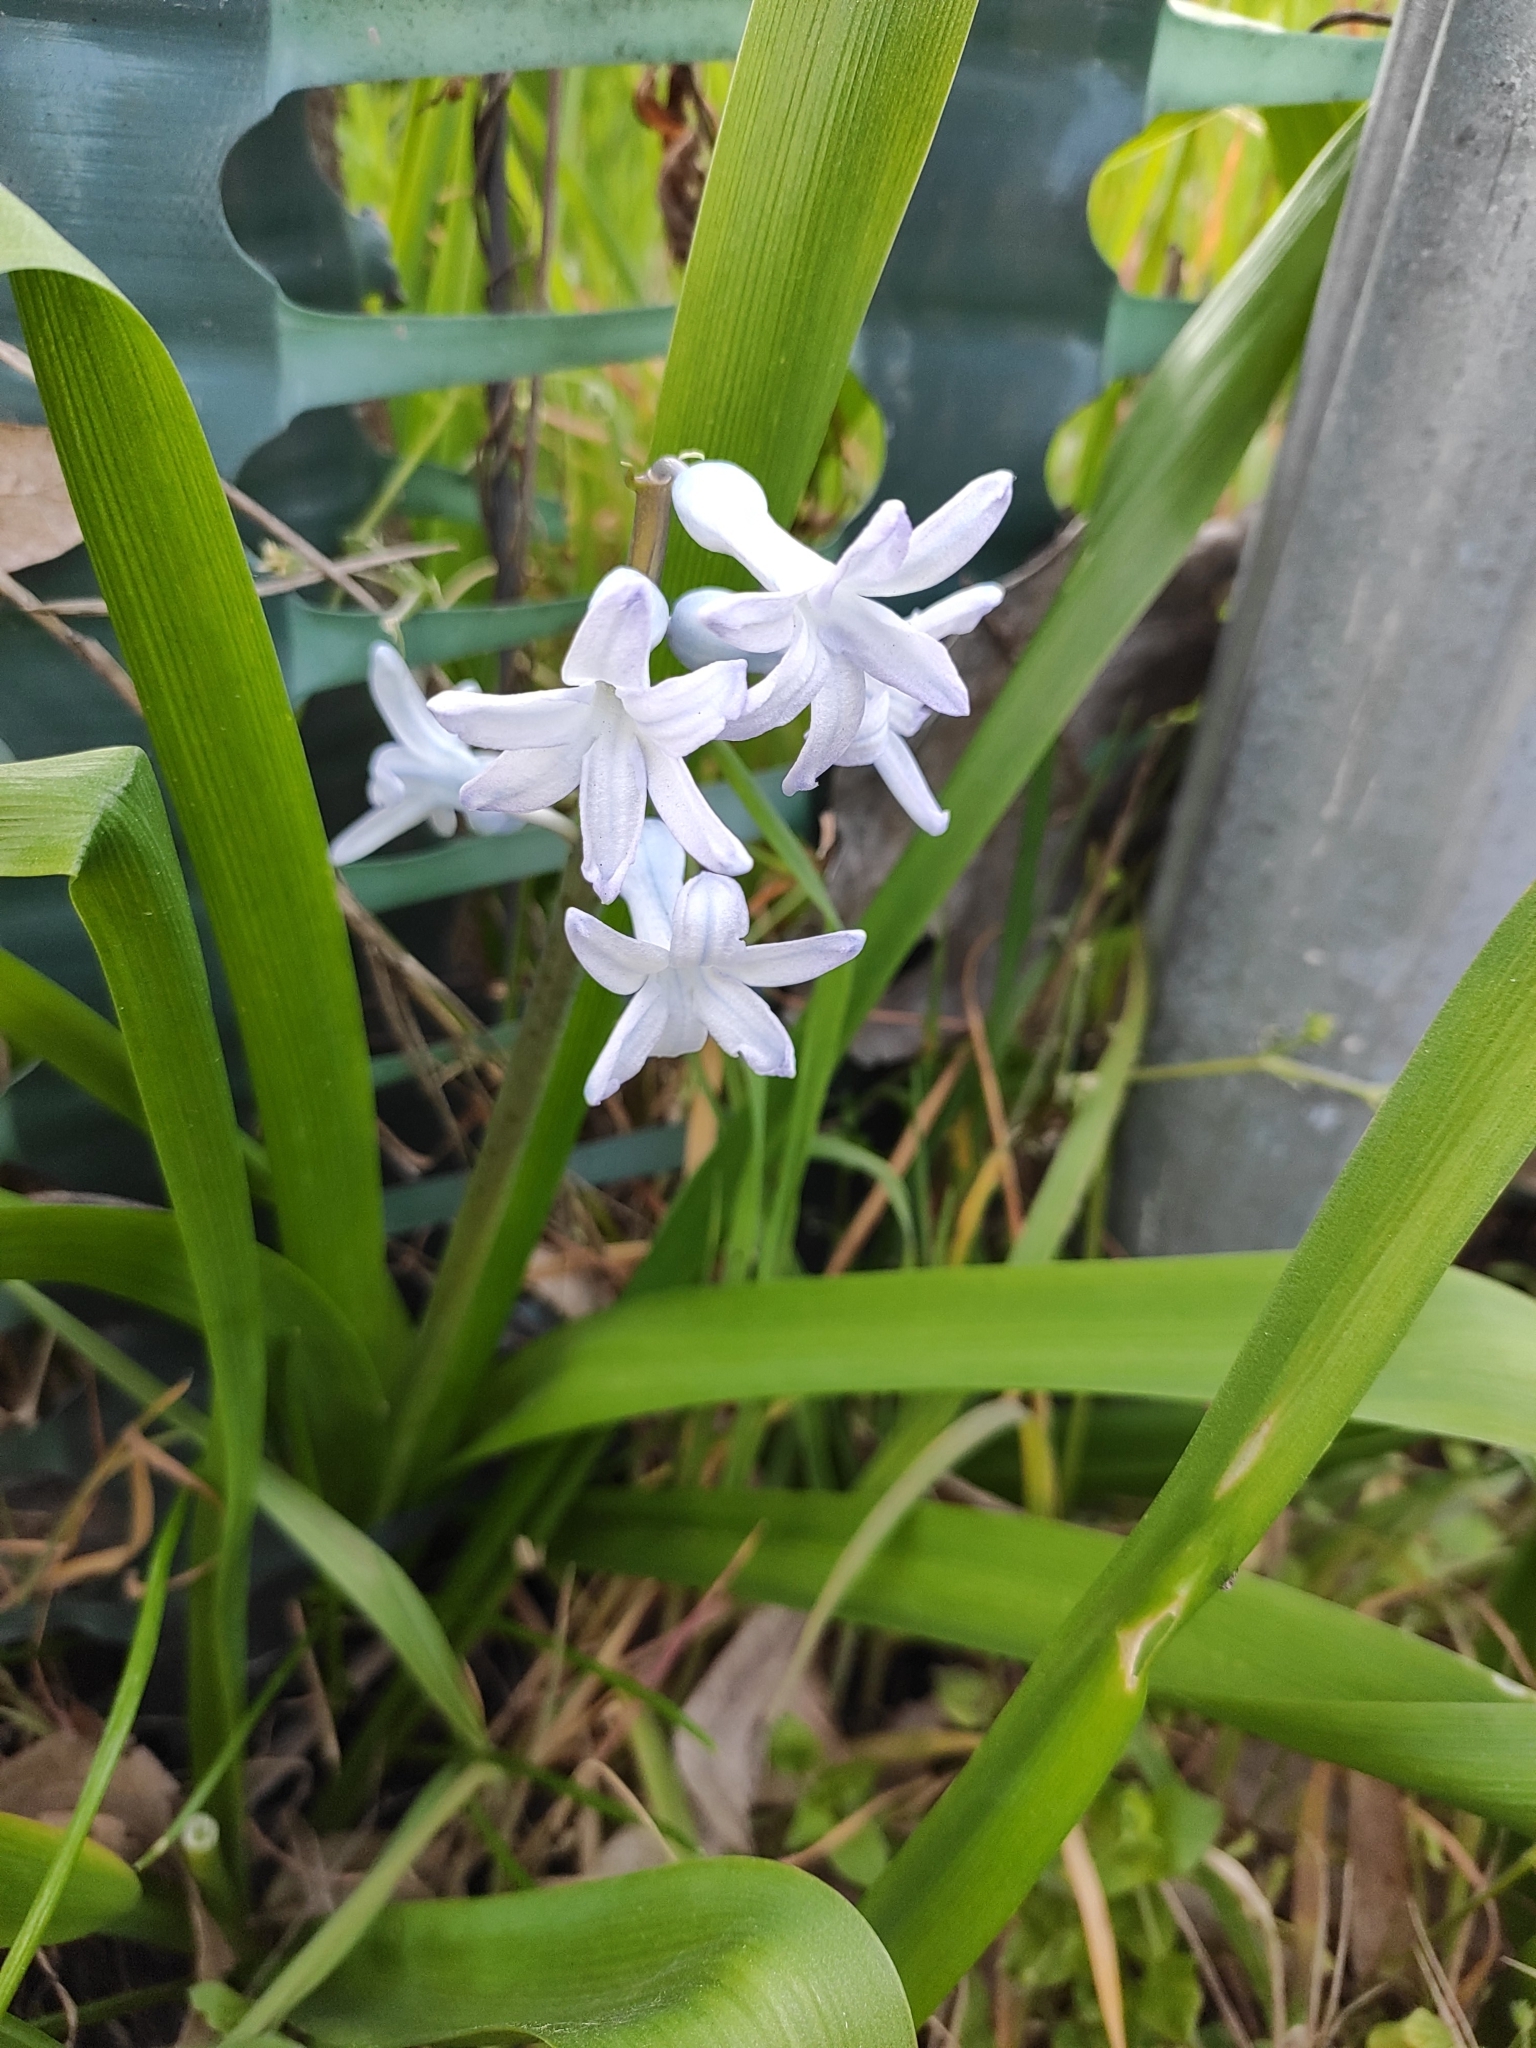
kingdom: Plantae
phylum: Tracheophyta
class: Liliopsida
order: Asparagales
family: Asparagaceae
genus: Hyacinthus
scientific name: Hyacinthus orientalis
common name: Hyacinth
